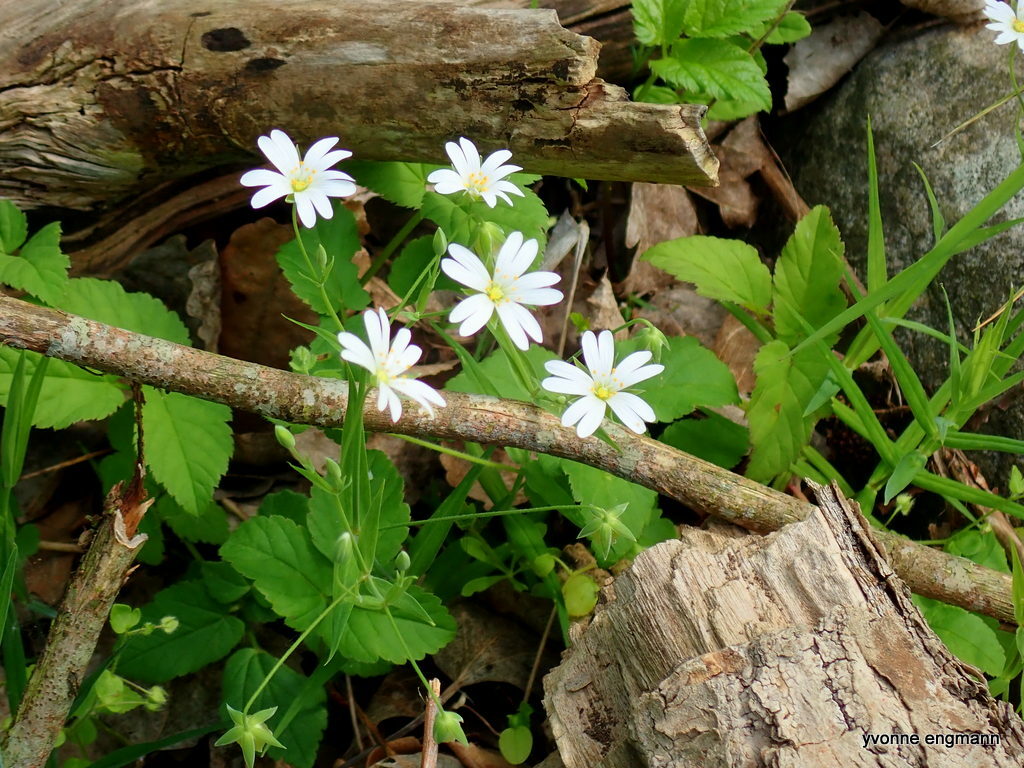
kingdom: Plantae
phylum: Tracheophyta
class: Magnoliopsida
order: Caryophyllales
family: Caryophyllaceae
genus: Rabelera
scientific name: Rabelera holostea
